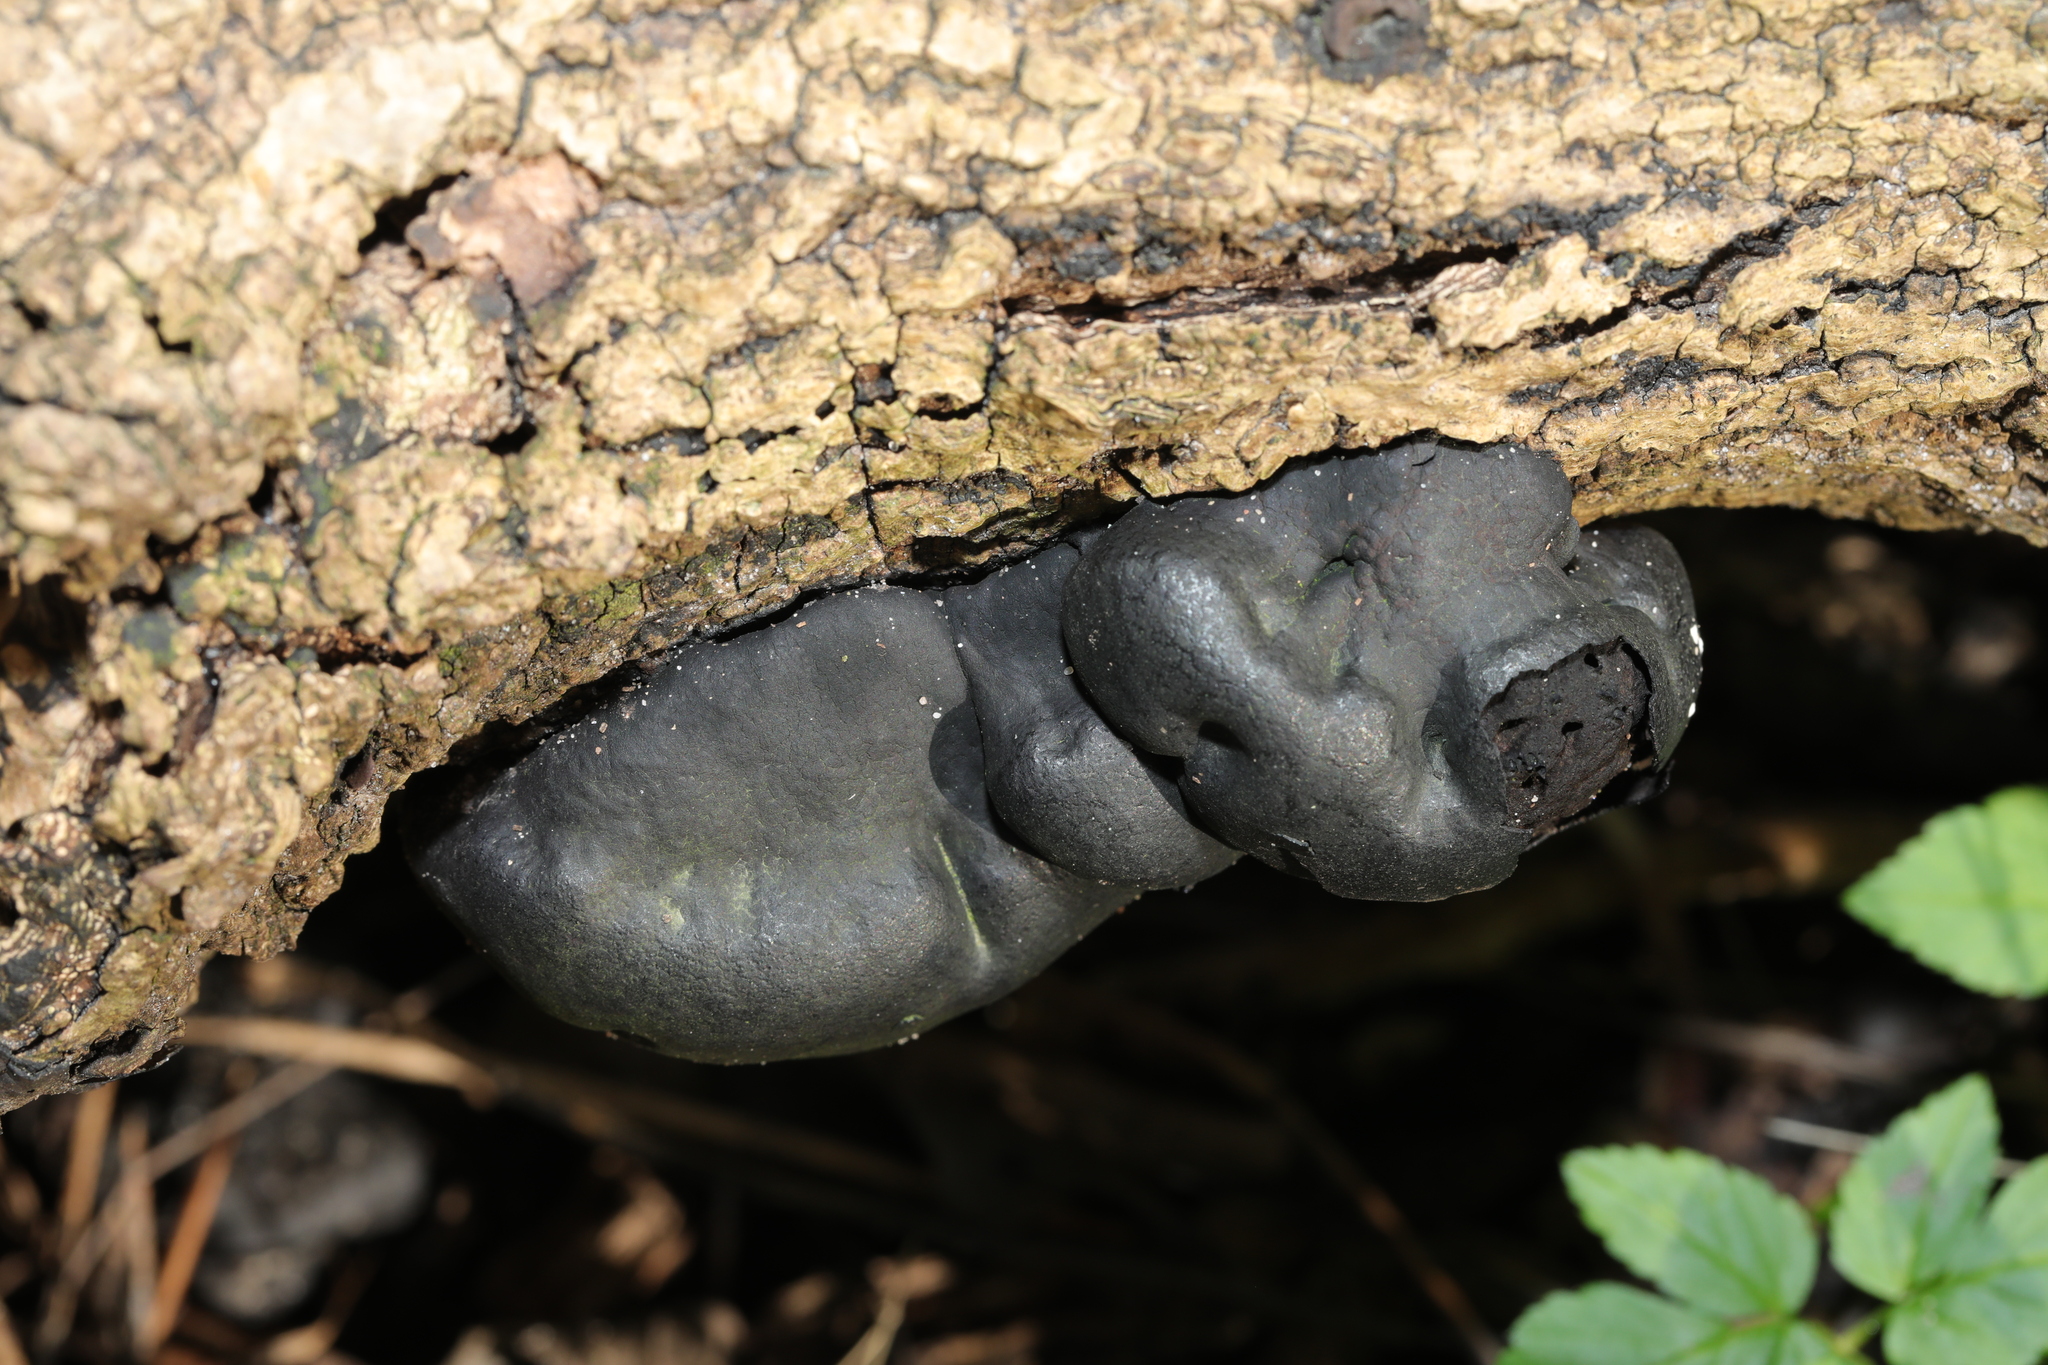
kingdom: Fungi
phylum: Ascomycota
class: Sordariomycetes
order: Xylariales
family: Hypoxylaceae
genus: Daldinia
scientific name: Daldinia concentrica
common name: Cramp balls
